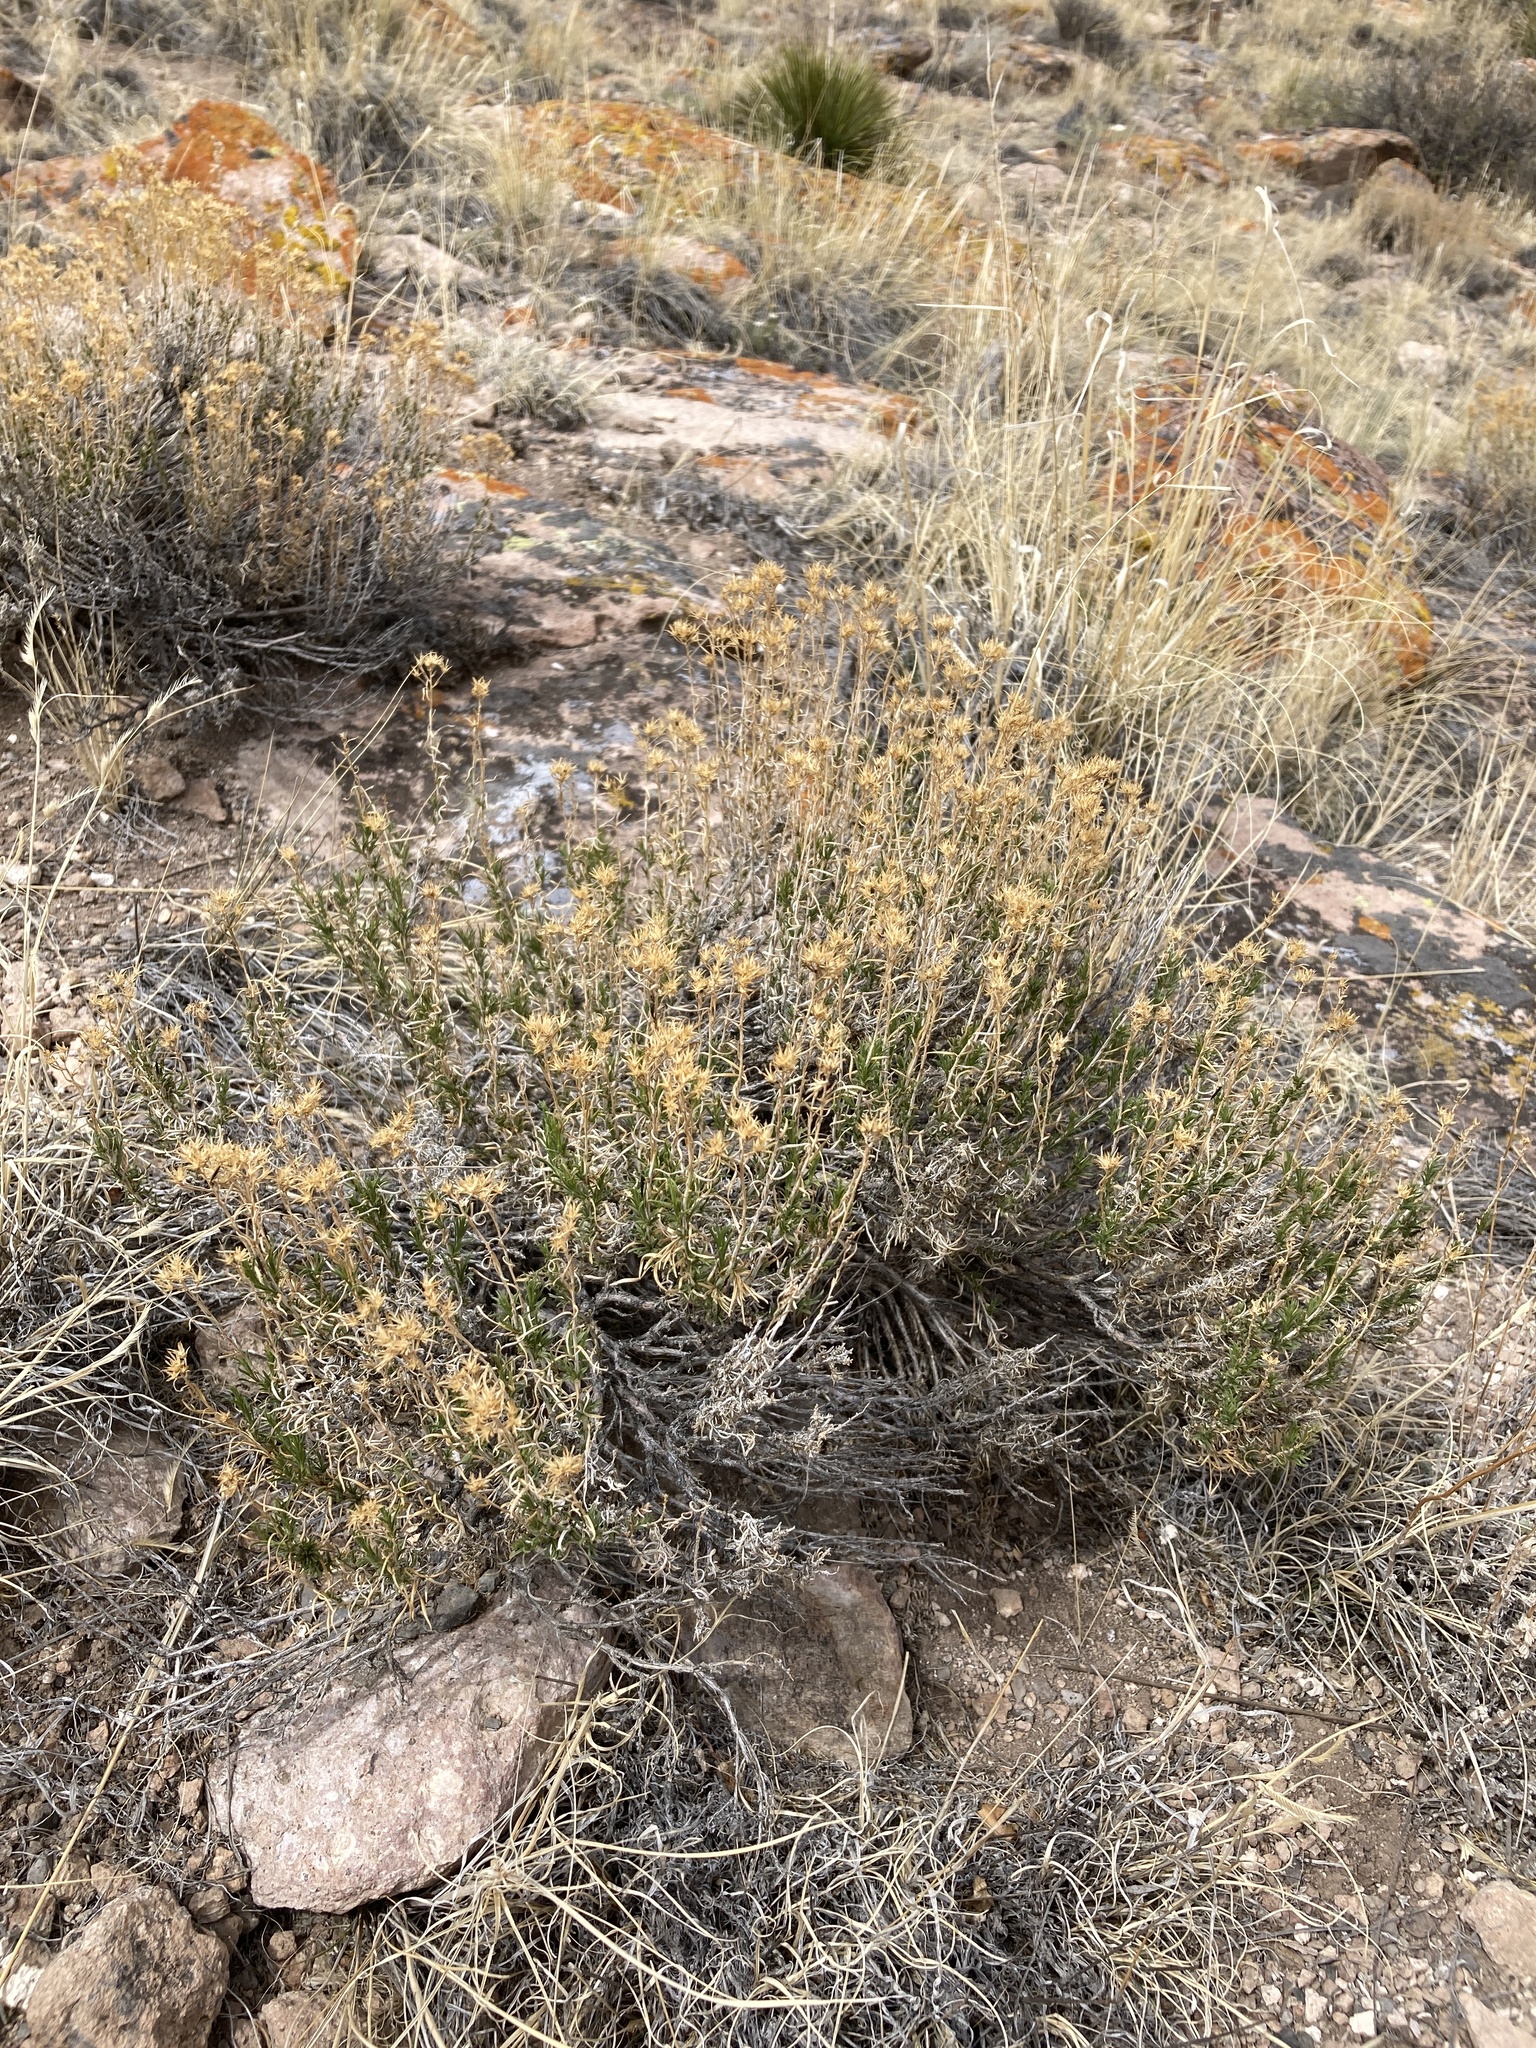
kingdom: Plantae
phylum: Tracheophyta
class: Magnoliopsida
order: Asterales
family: Asteraceae
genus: Chrysothamnus
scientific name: Chrysothamnus greenei
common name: Greene's rabbitbrush
